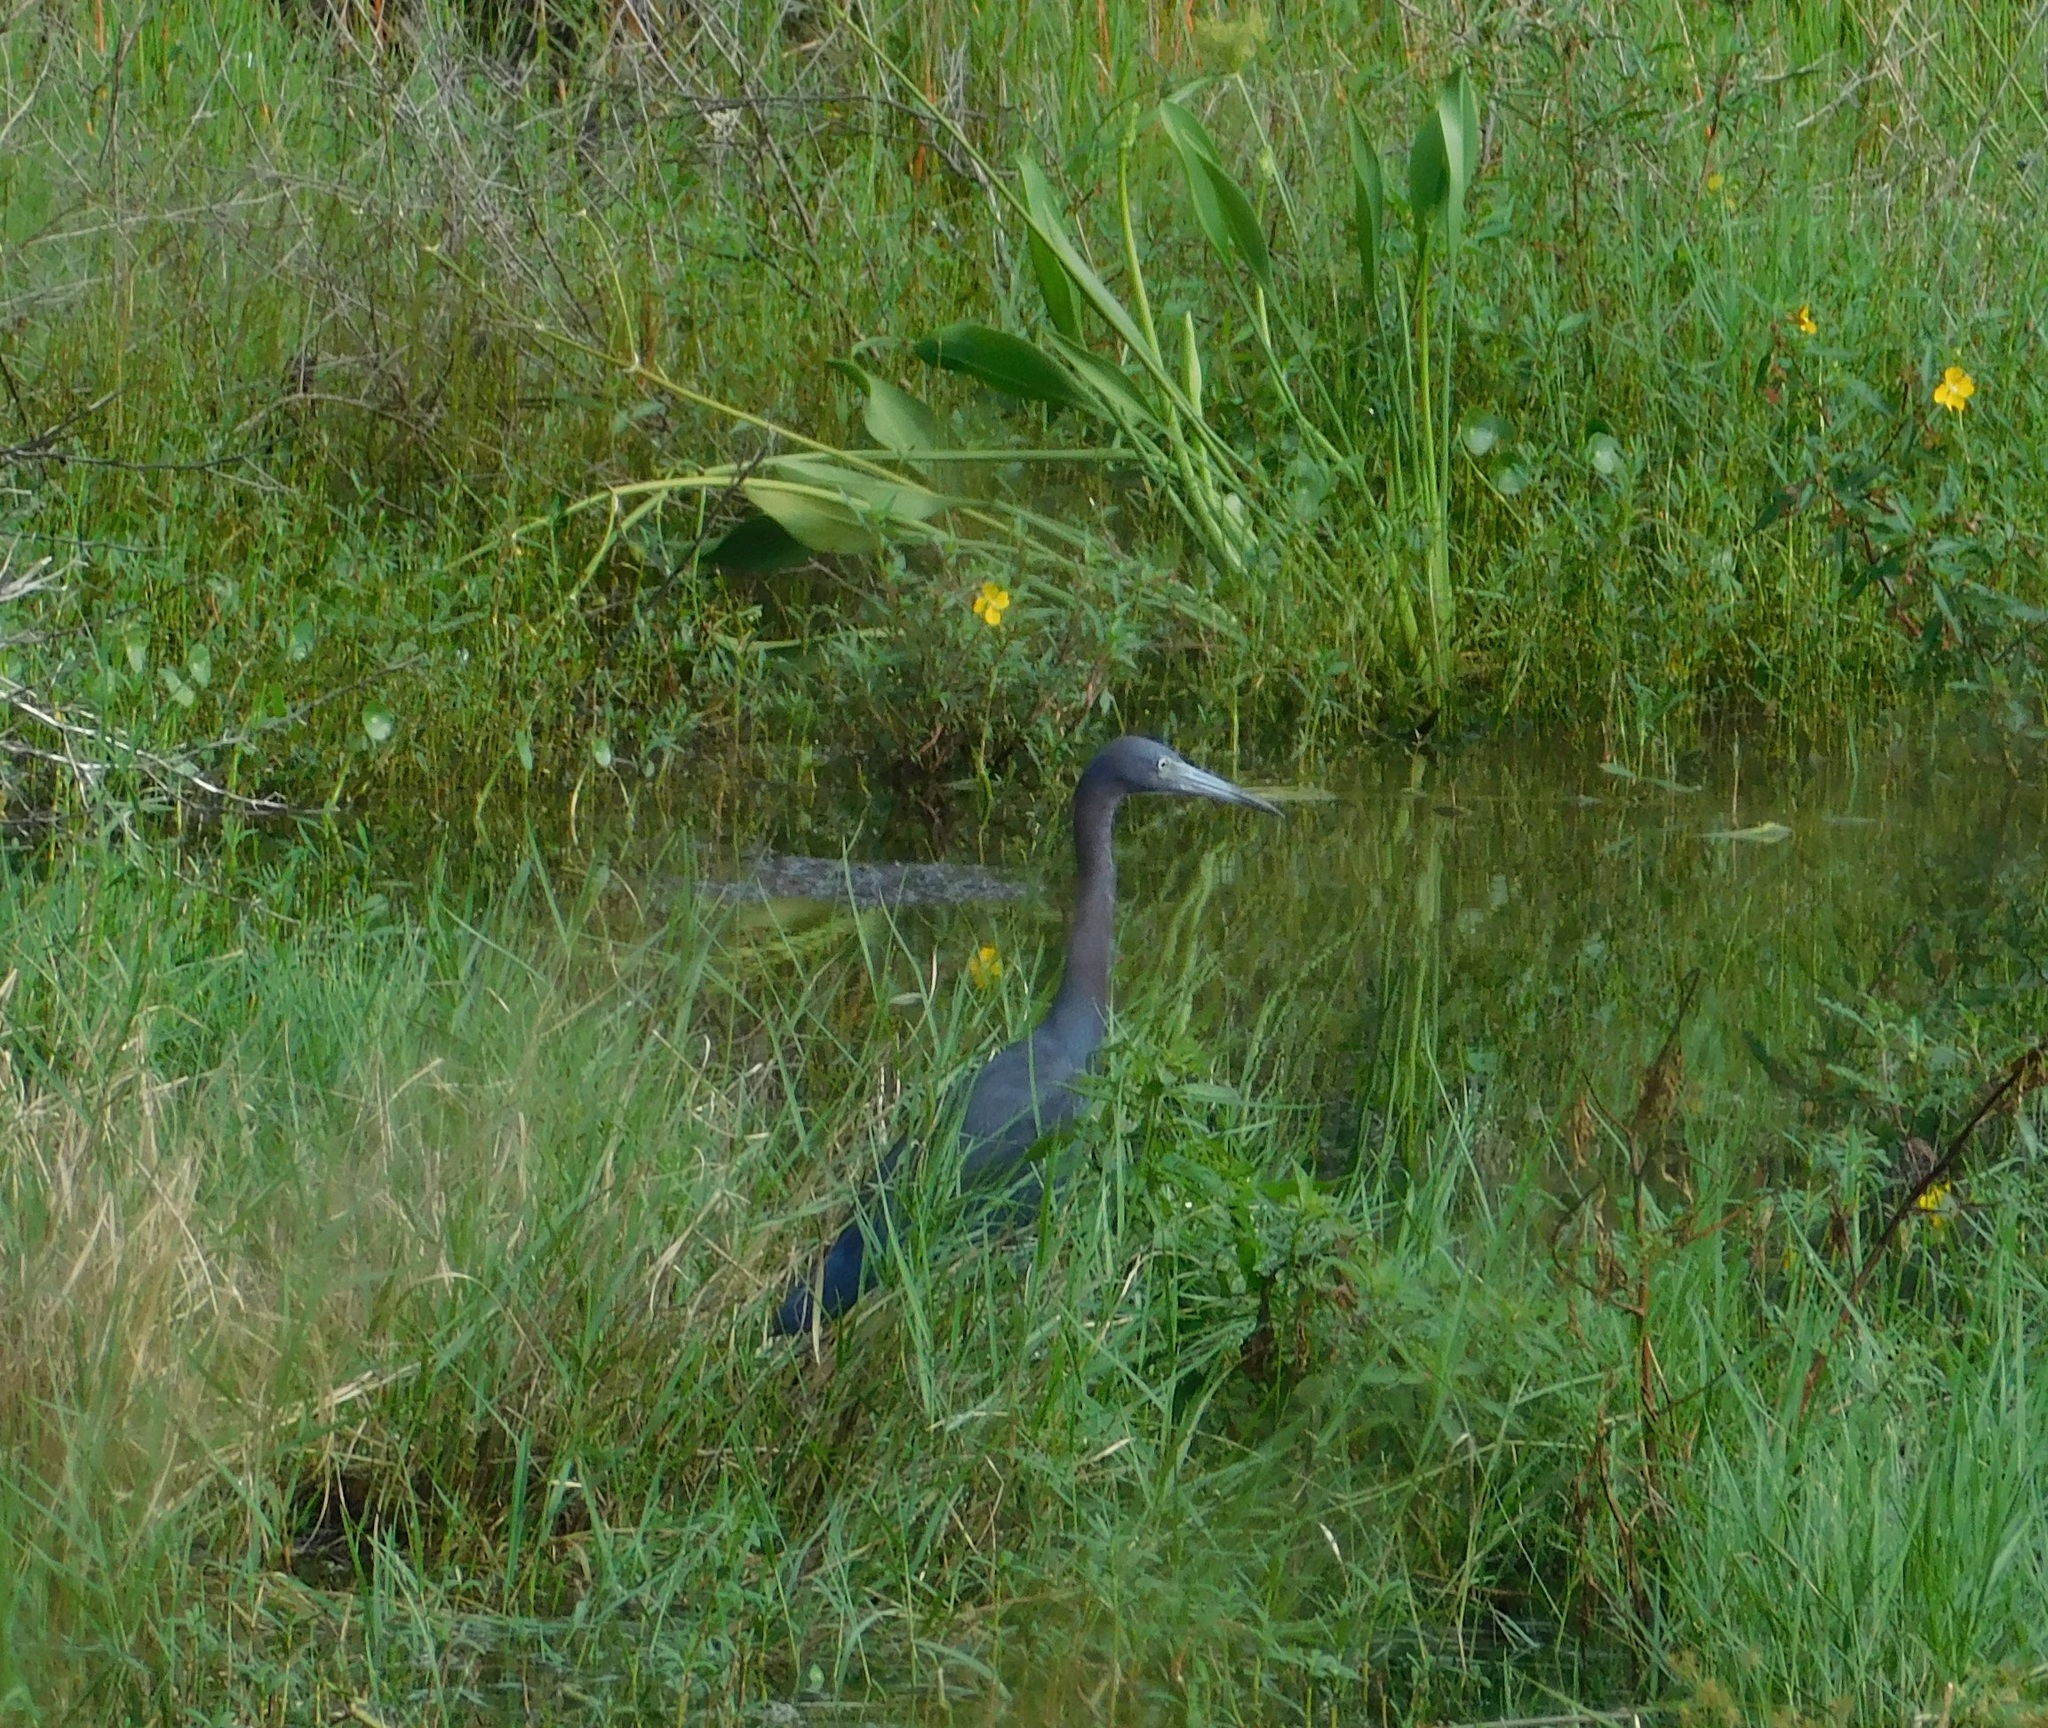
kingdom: Animalia
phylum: Chordata
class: Aves
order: Pelecaniformes
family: Ardeidae
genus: Egretta
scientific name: Egretta caerulea
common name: Little blue heron
